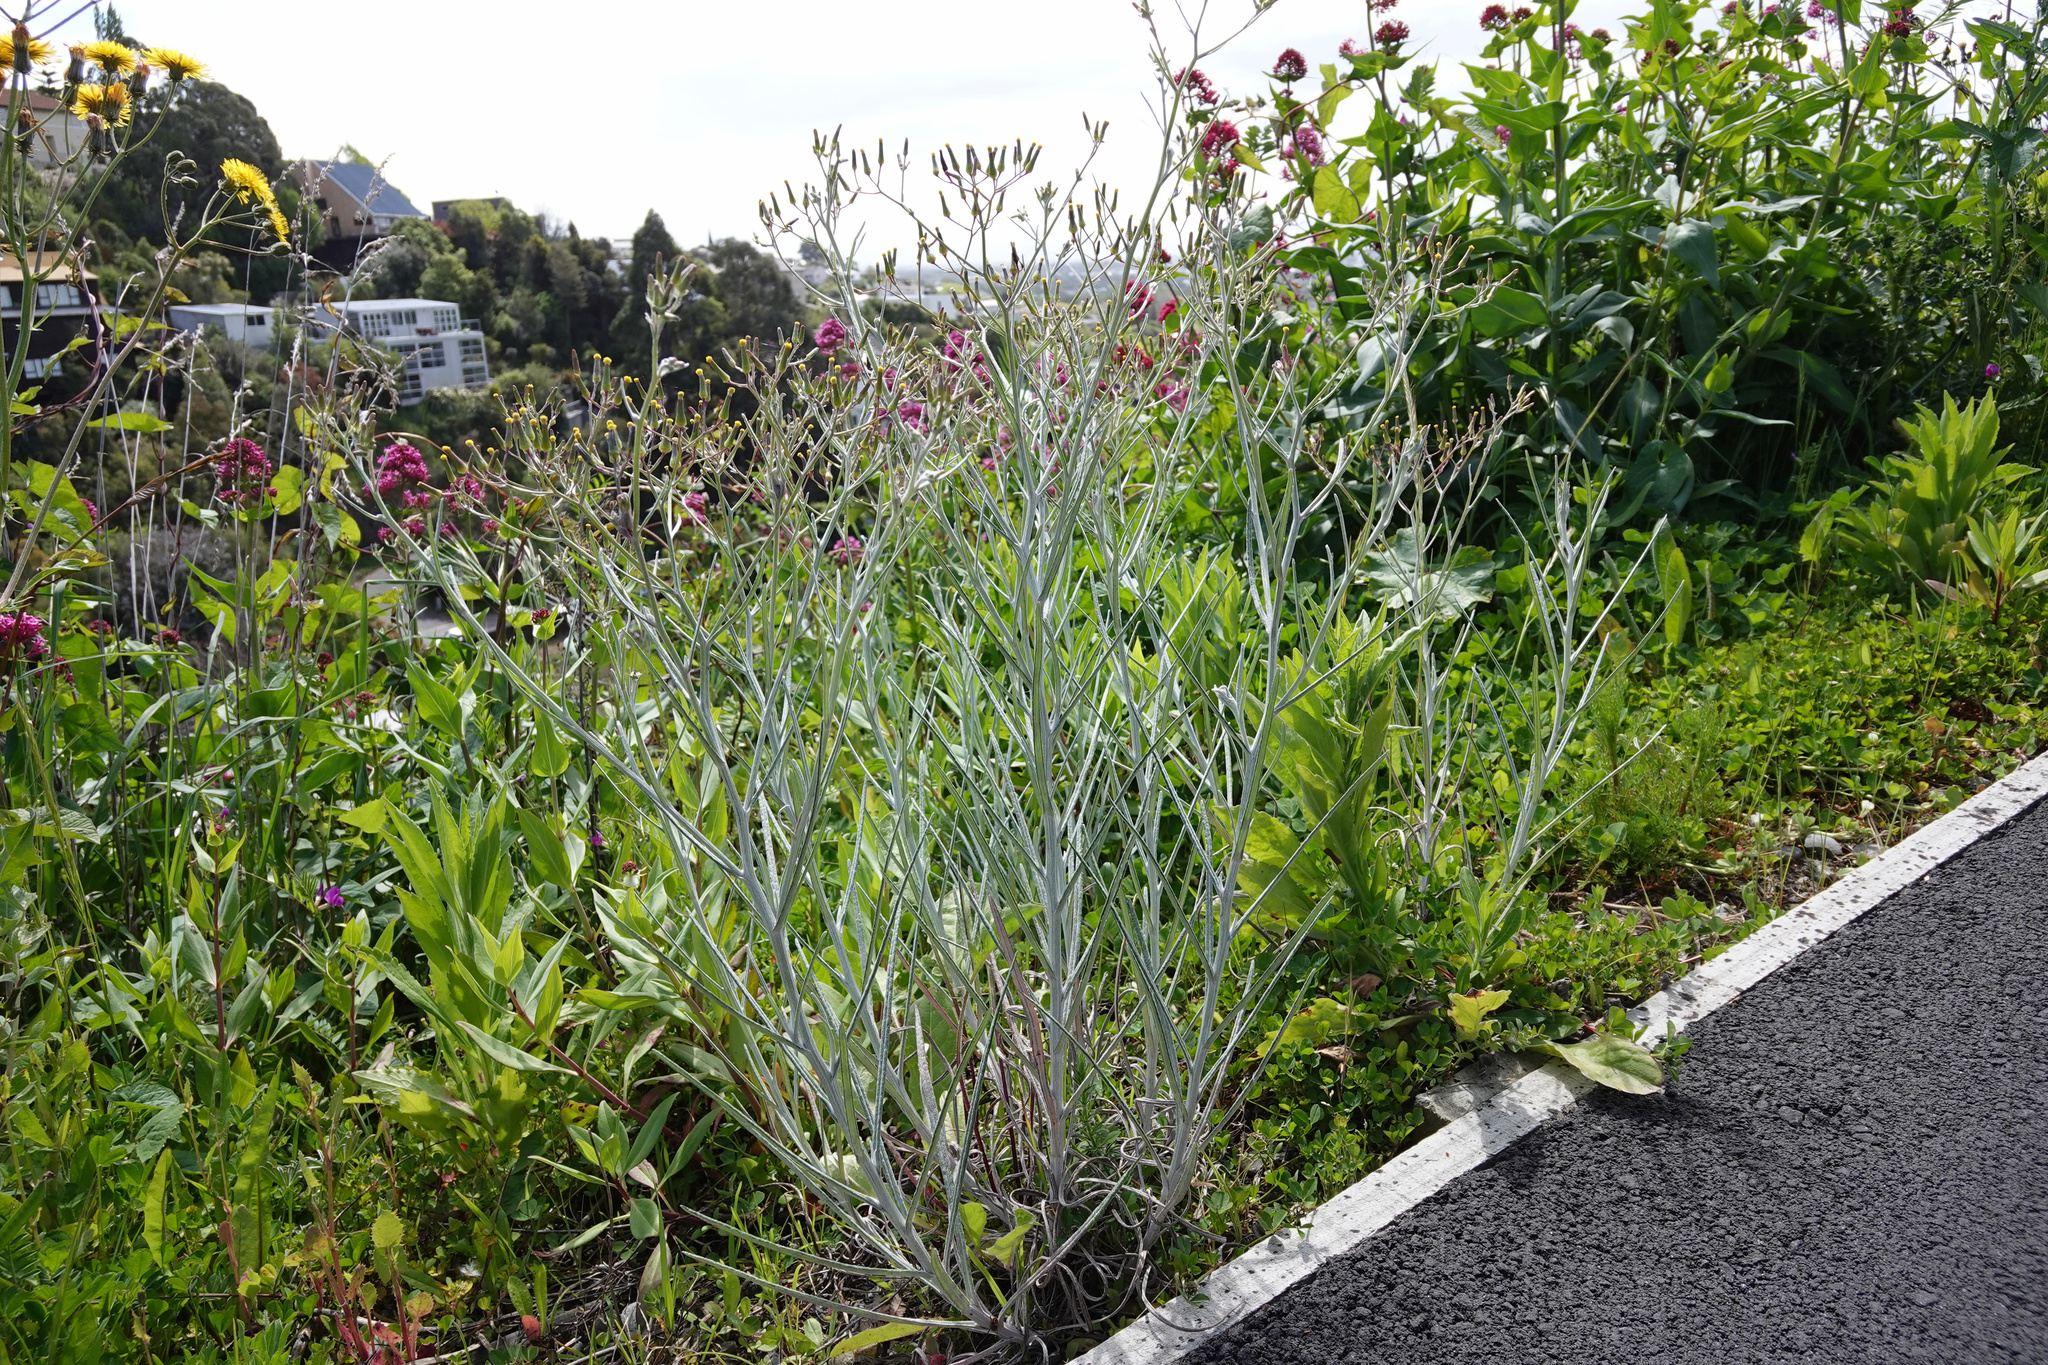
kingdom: Plantae
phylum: Tracheophyta
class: Magnoliopsida
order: Asterales
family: Asteraceae
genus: Senecio
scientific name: Senecio quadridentatus
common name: Cotton fireweed
